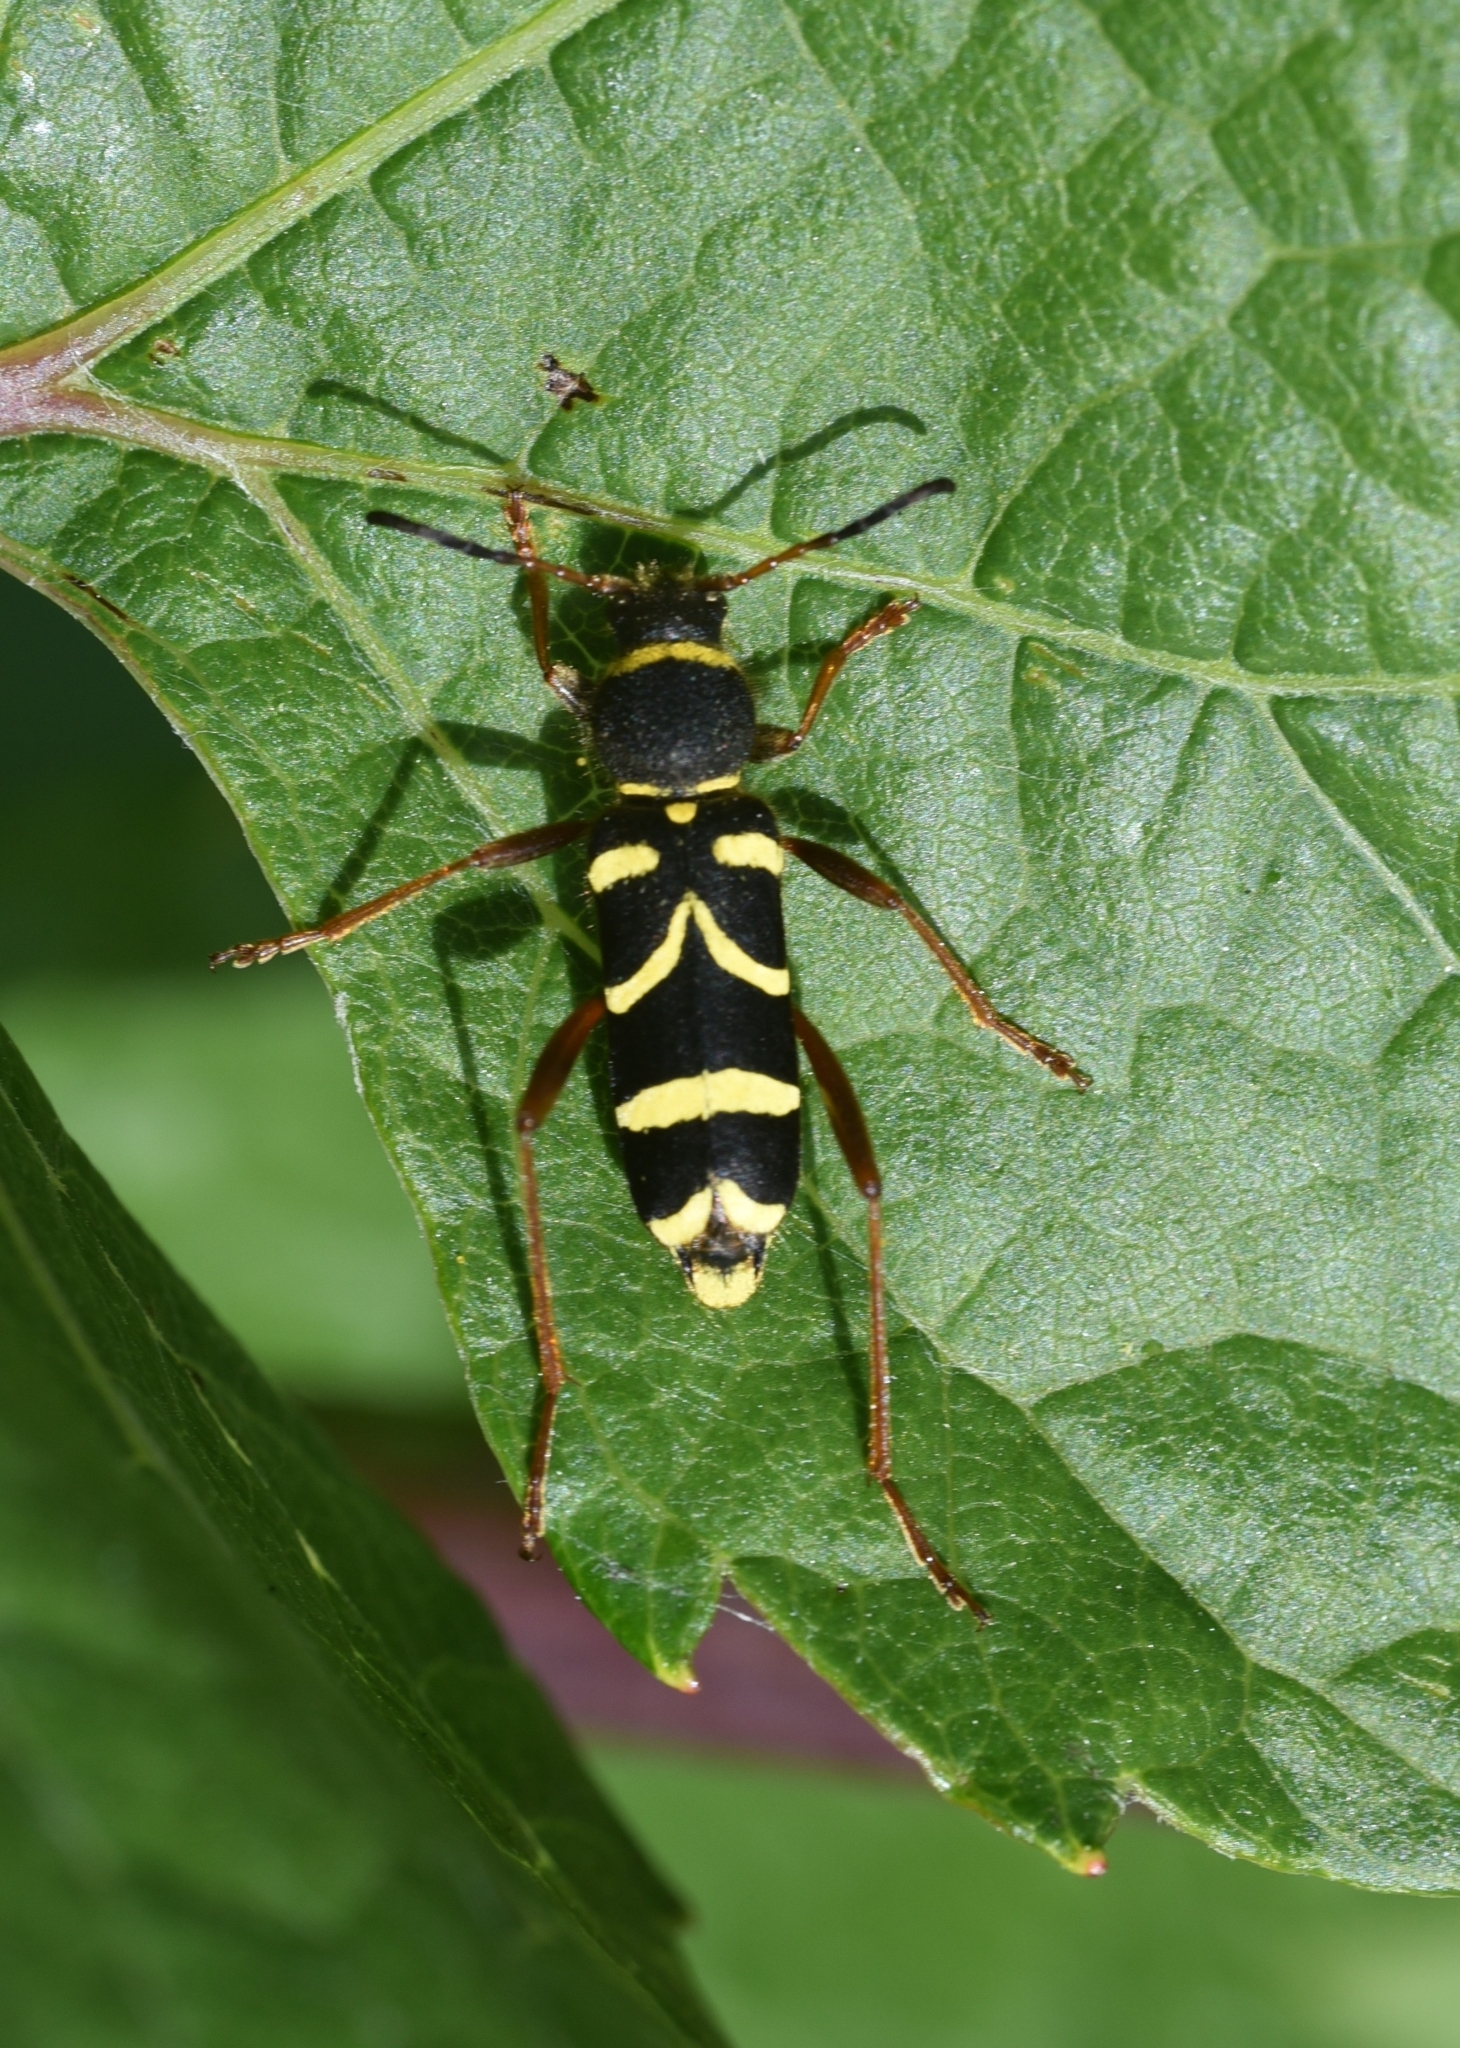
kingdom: Animalia
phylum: Arthropoda
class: Insecta
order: Coleoptera
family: Cerambycidae
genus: Clytus
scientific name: Clytus arietis
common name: Wasp beetle
